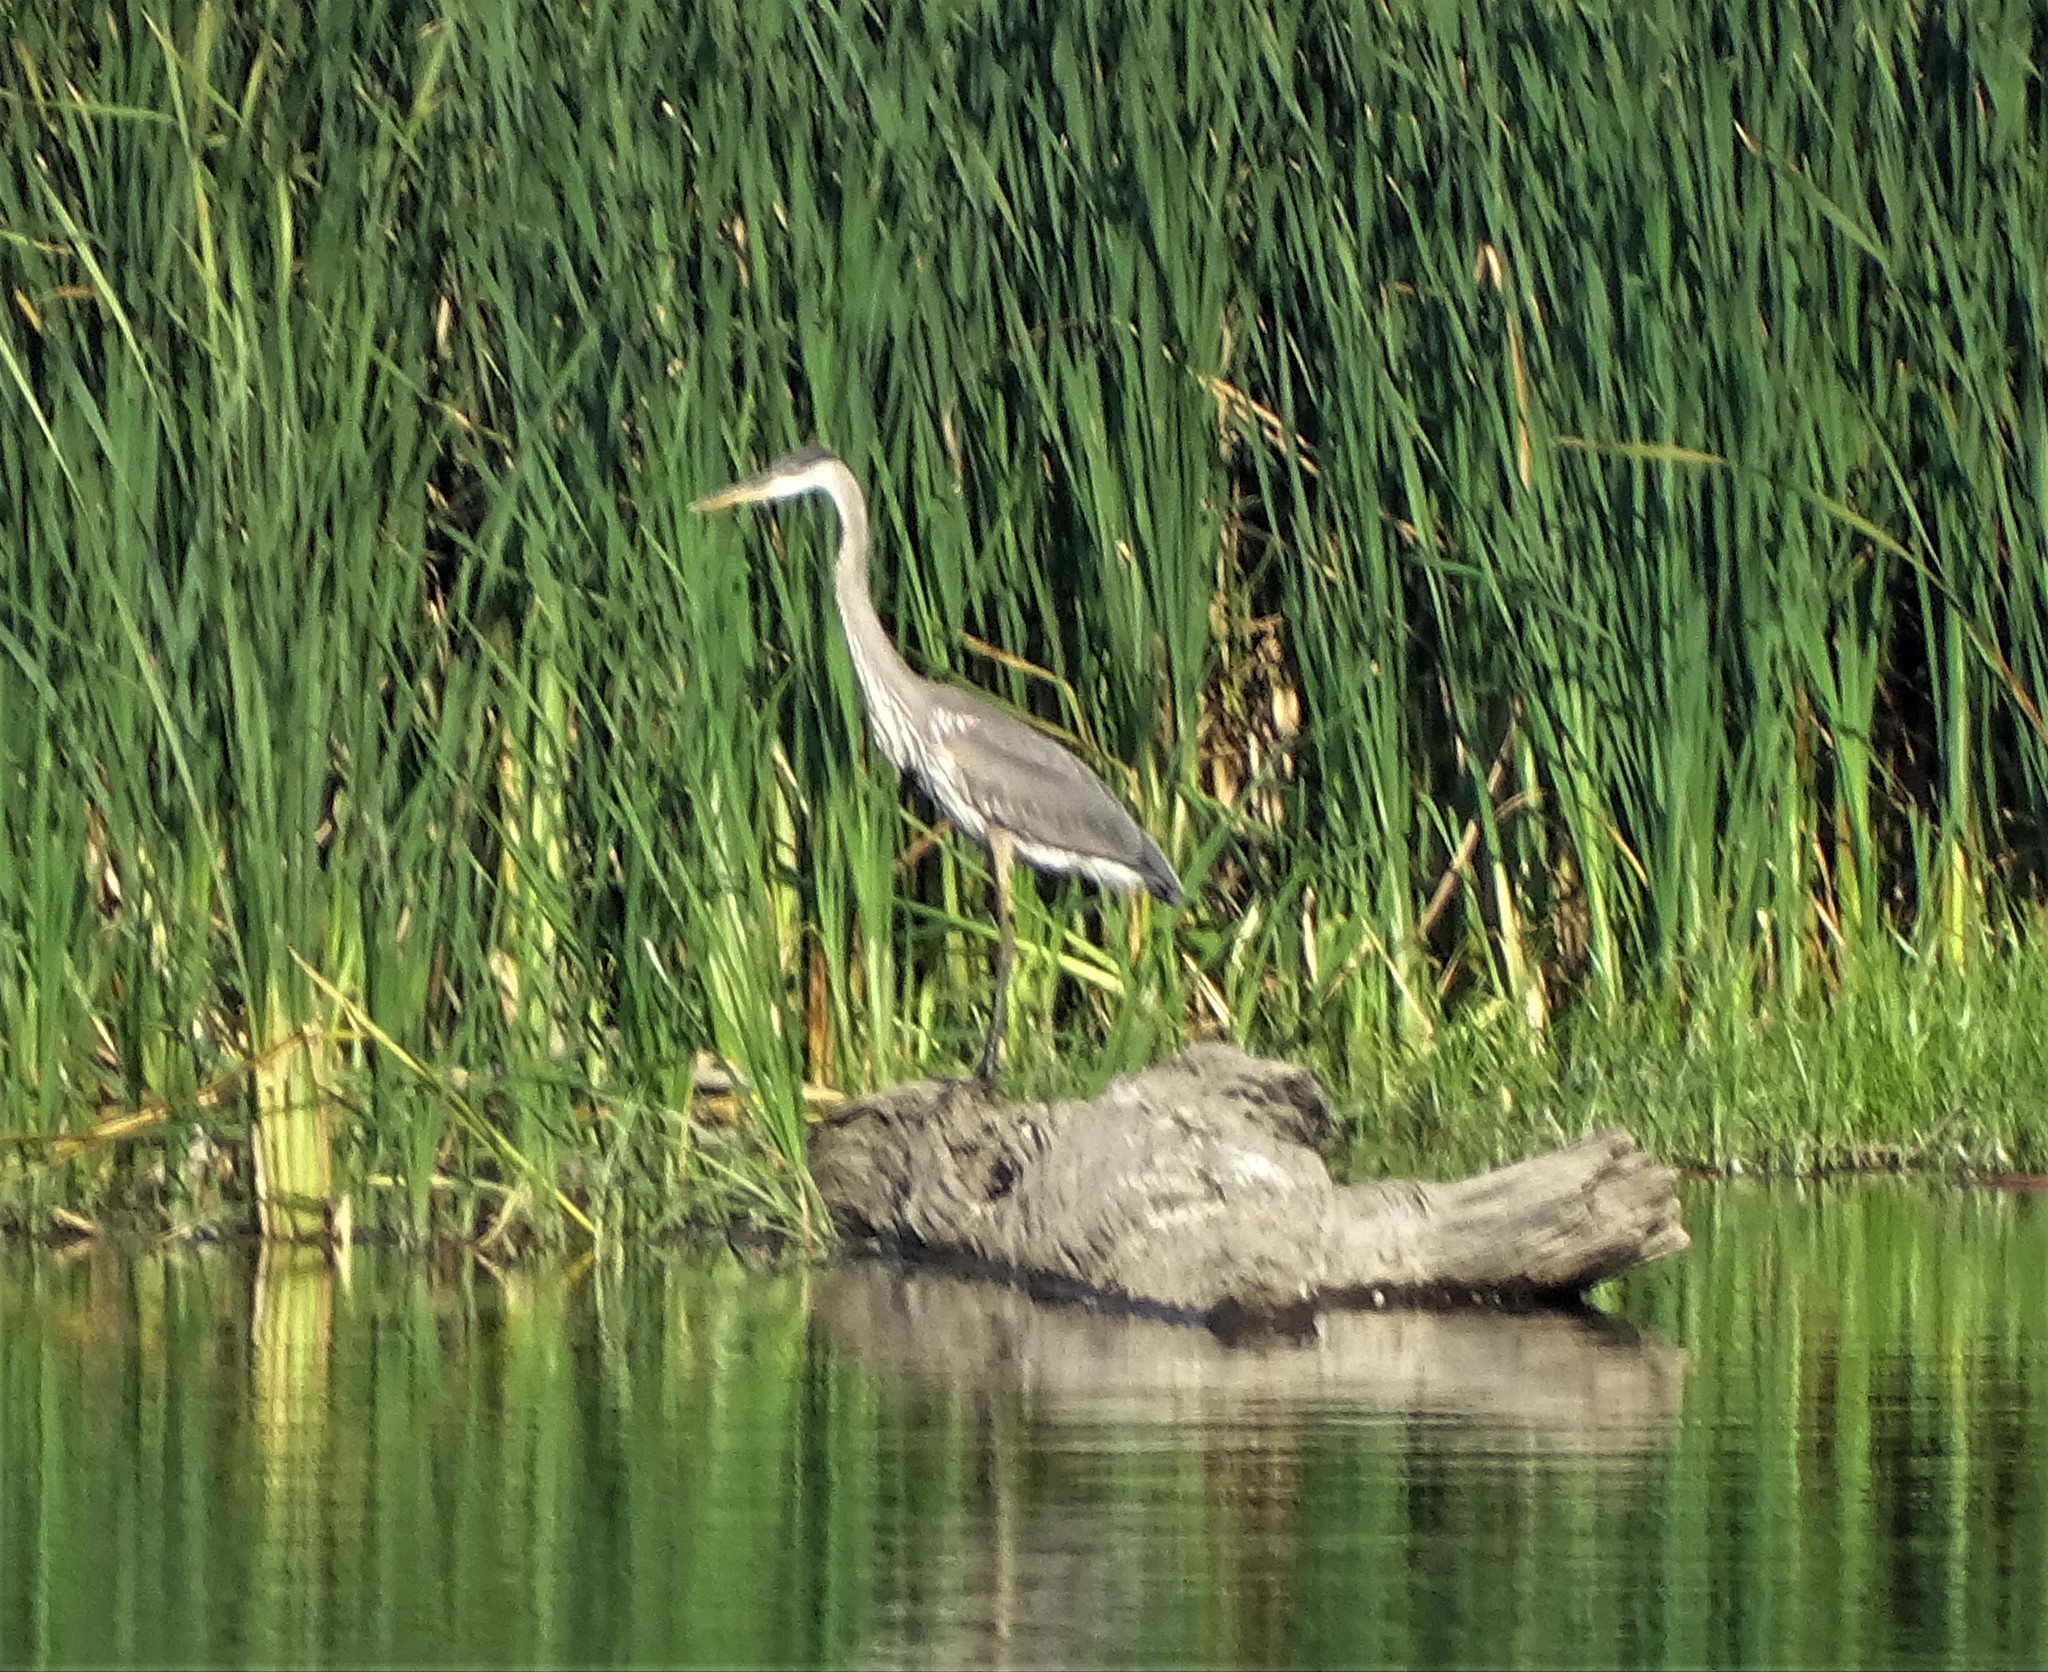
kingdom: Animalia
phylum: Chordata
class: Aves
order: Pelecaniformes
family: Ardeidae
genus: Ardea
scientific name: Ardea herodias
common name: Great blue heron
